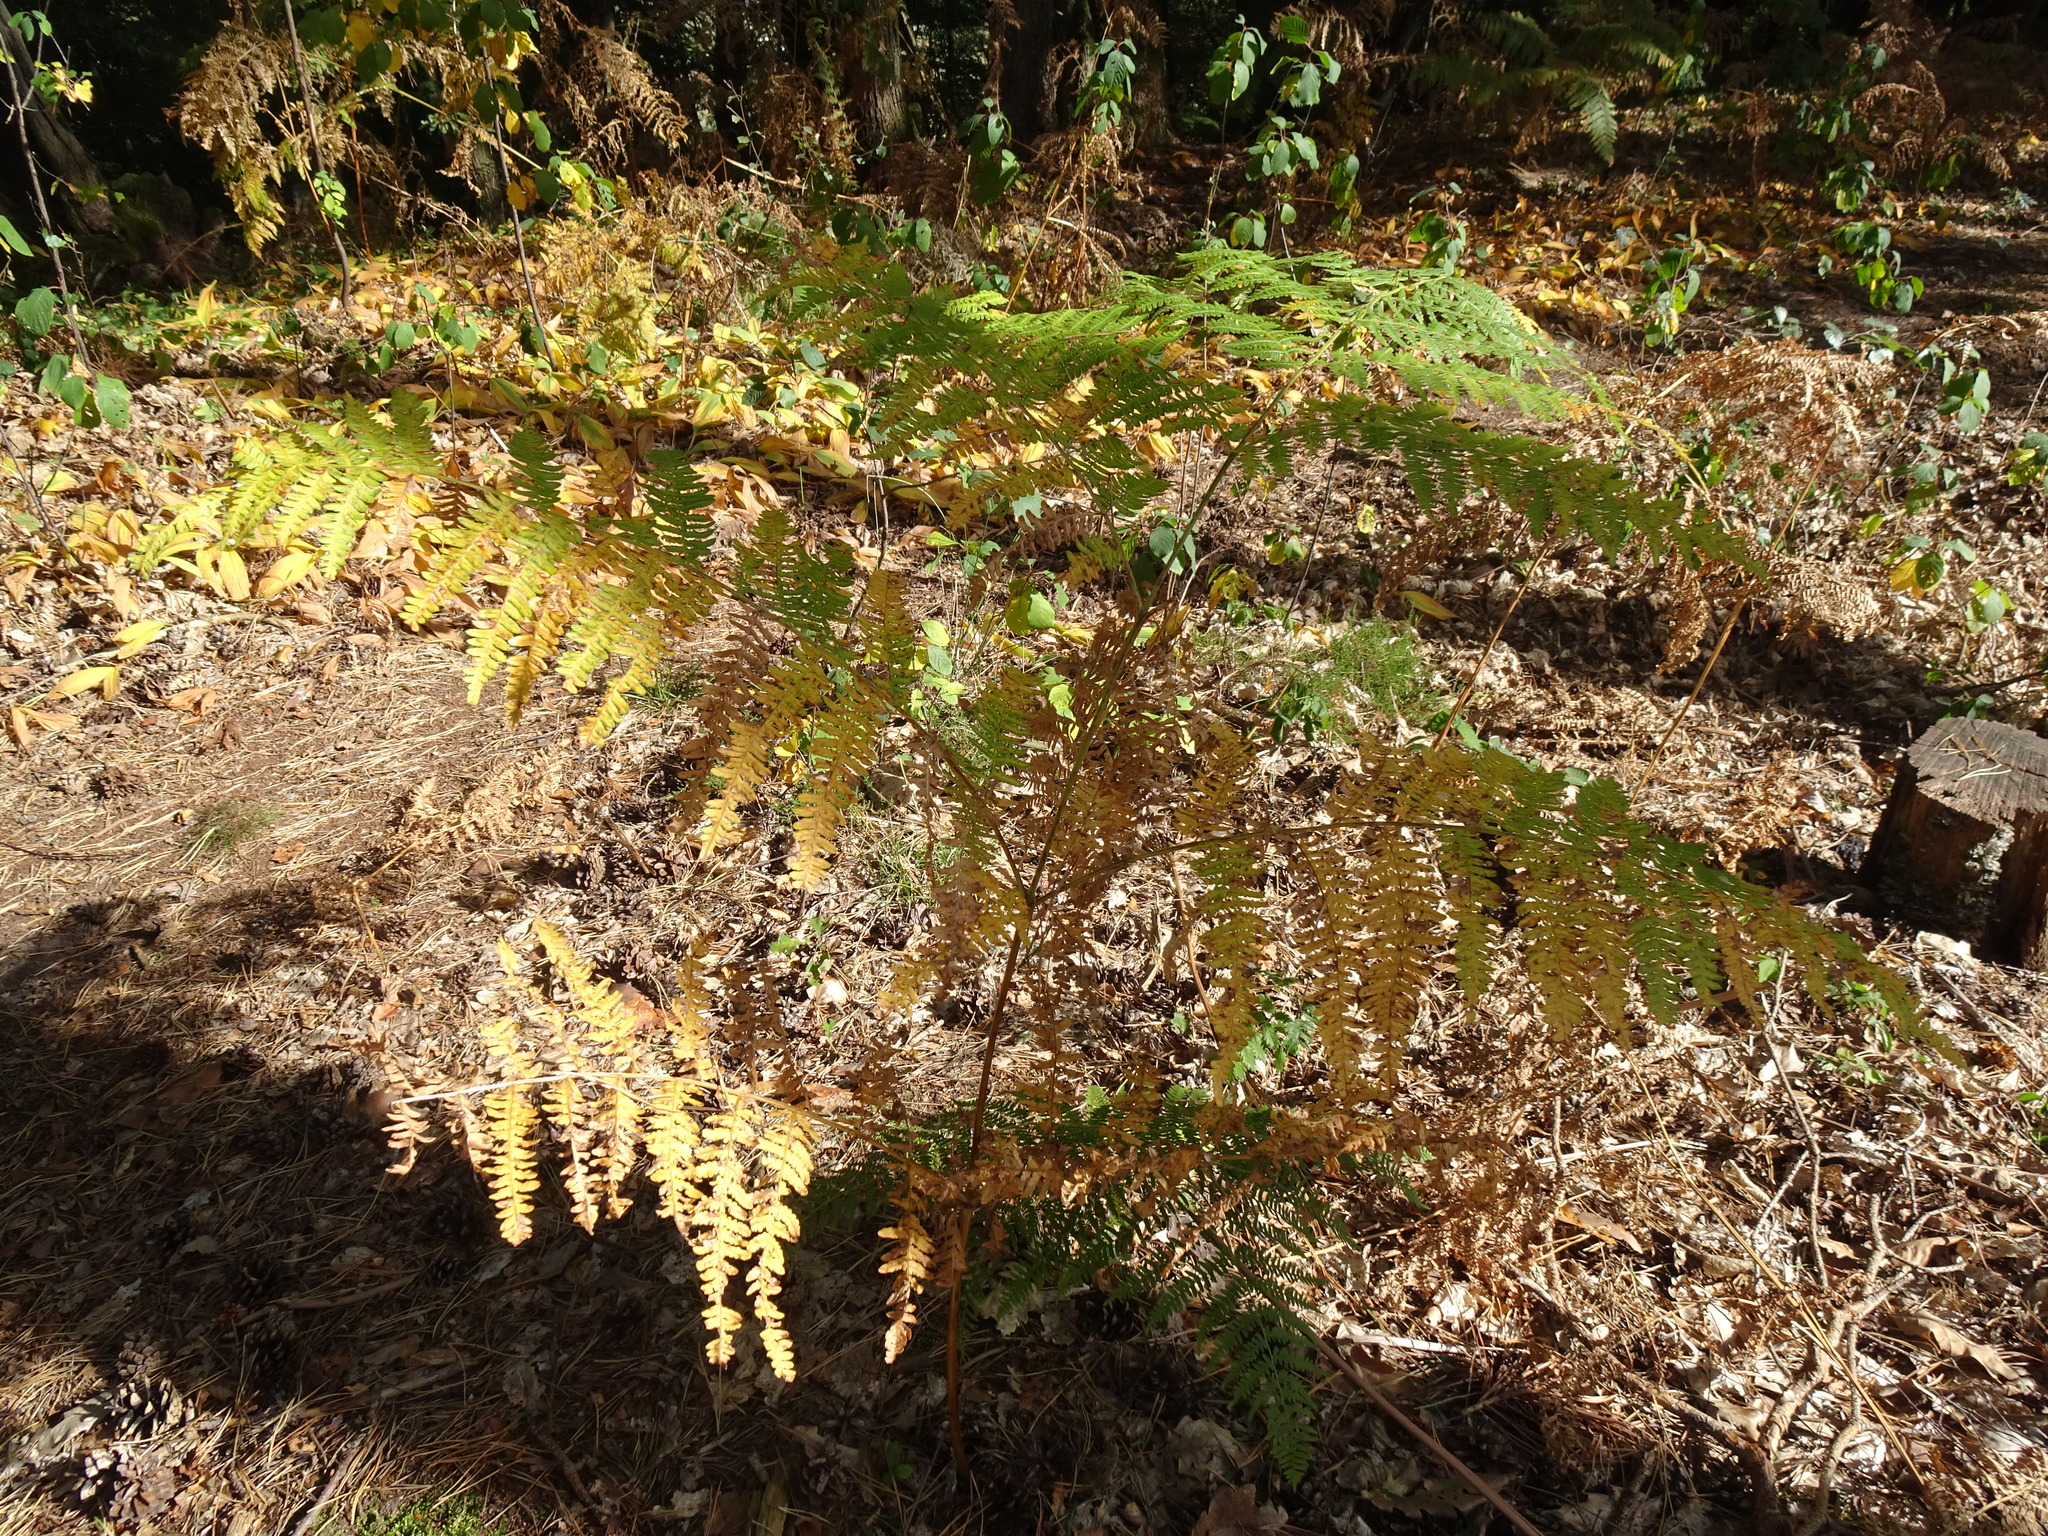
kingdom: Plantae
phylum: Tracheophyta
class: Polypodiopsida
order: Polypodiales
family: Dennstaedtiaceae
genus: Pteridium
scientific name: Pteridium aquilinum
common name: Bracken
